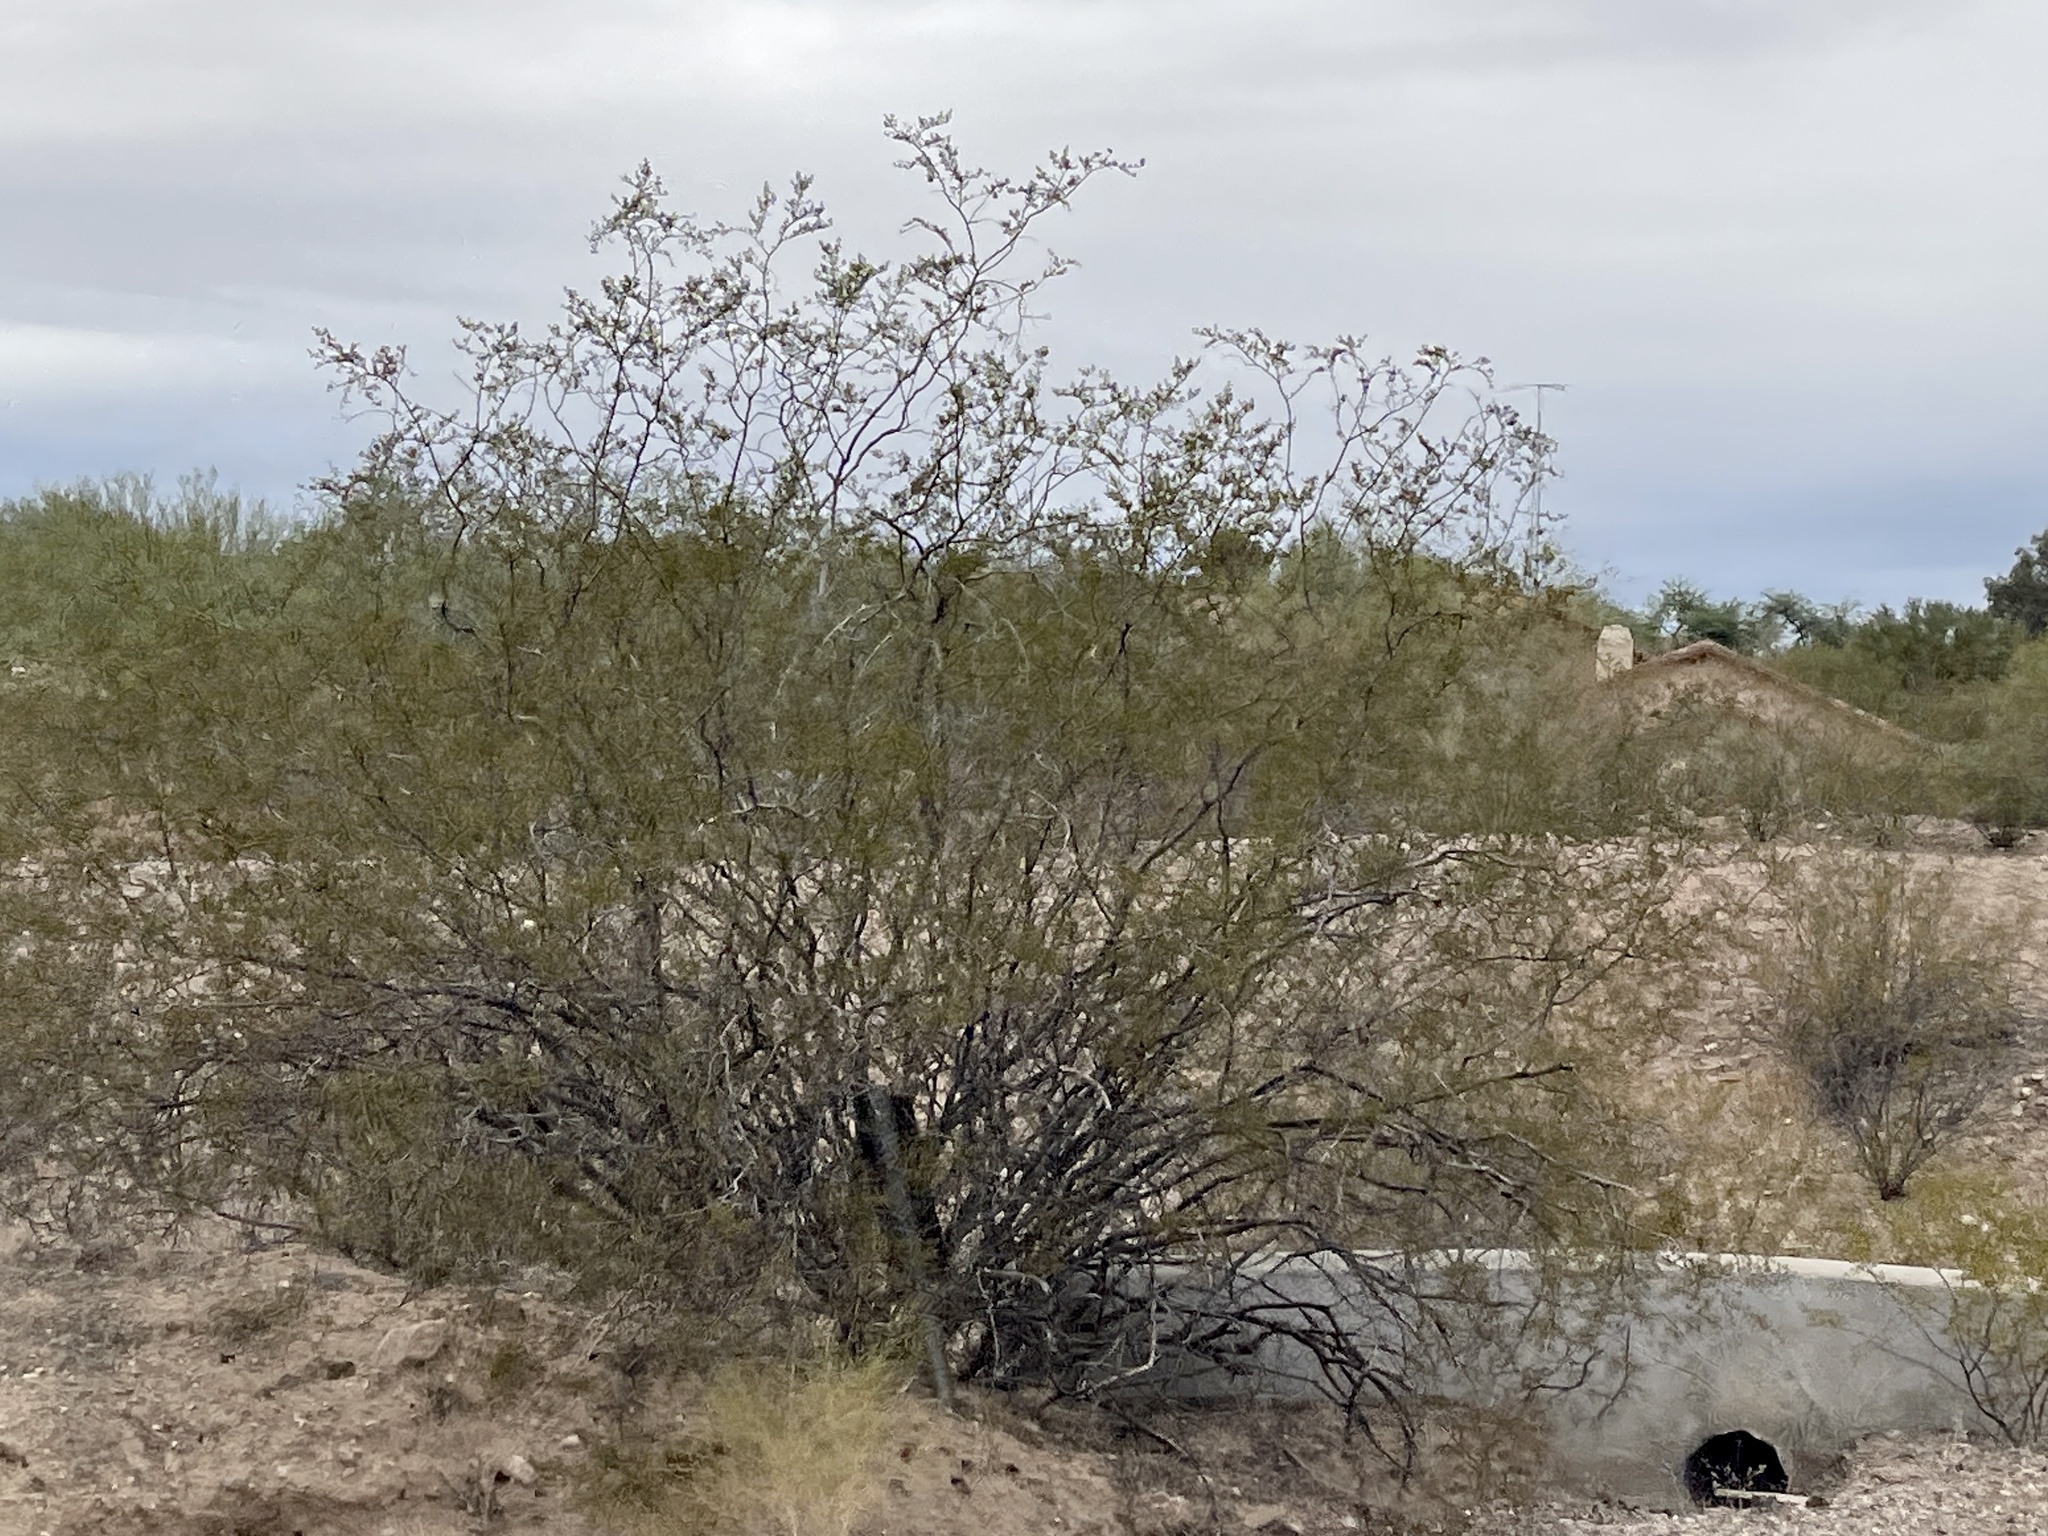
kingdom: Plantae
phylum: Tracheophyta
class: Magnoliopsida
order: Zygophyllales
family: Zygophyllaceae
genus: Larrea
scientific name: Larrea tridentata
